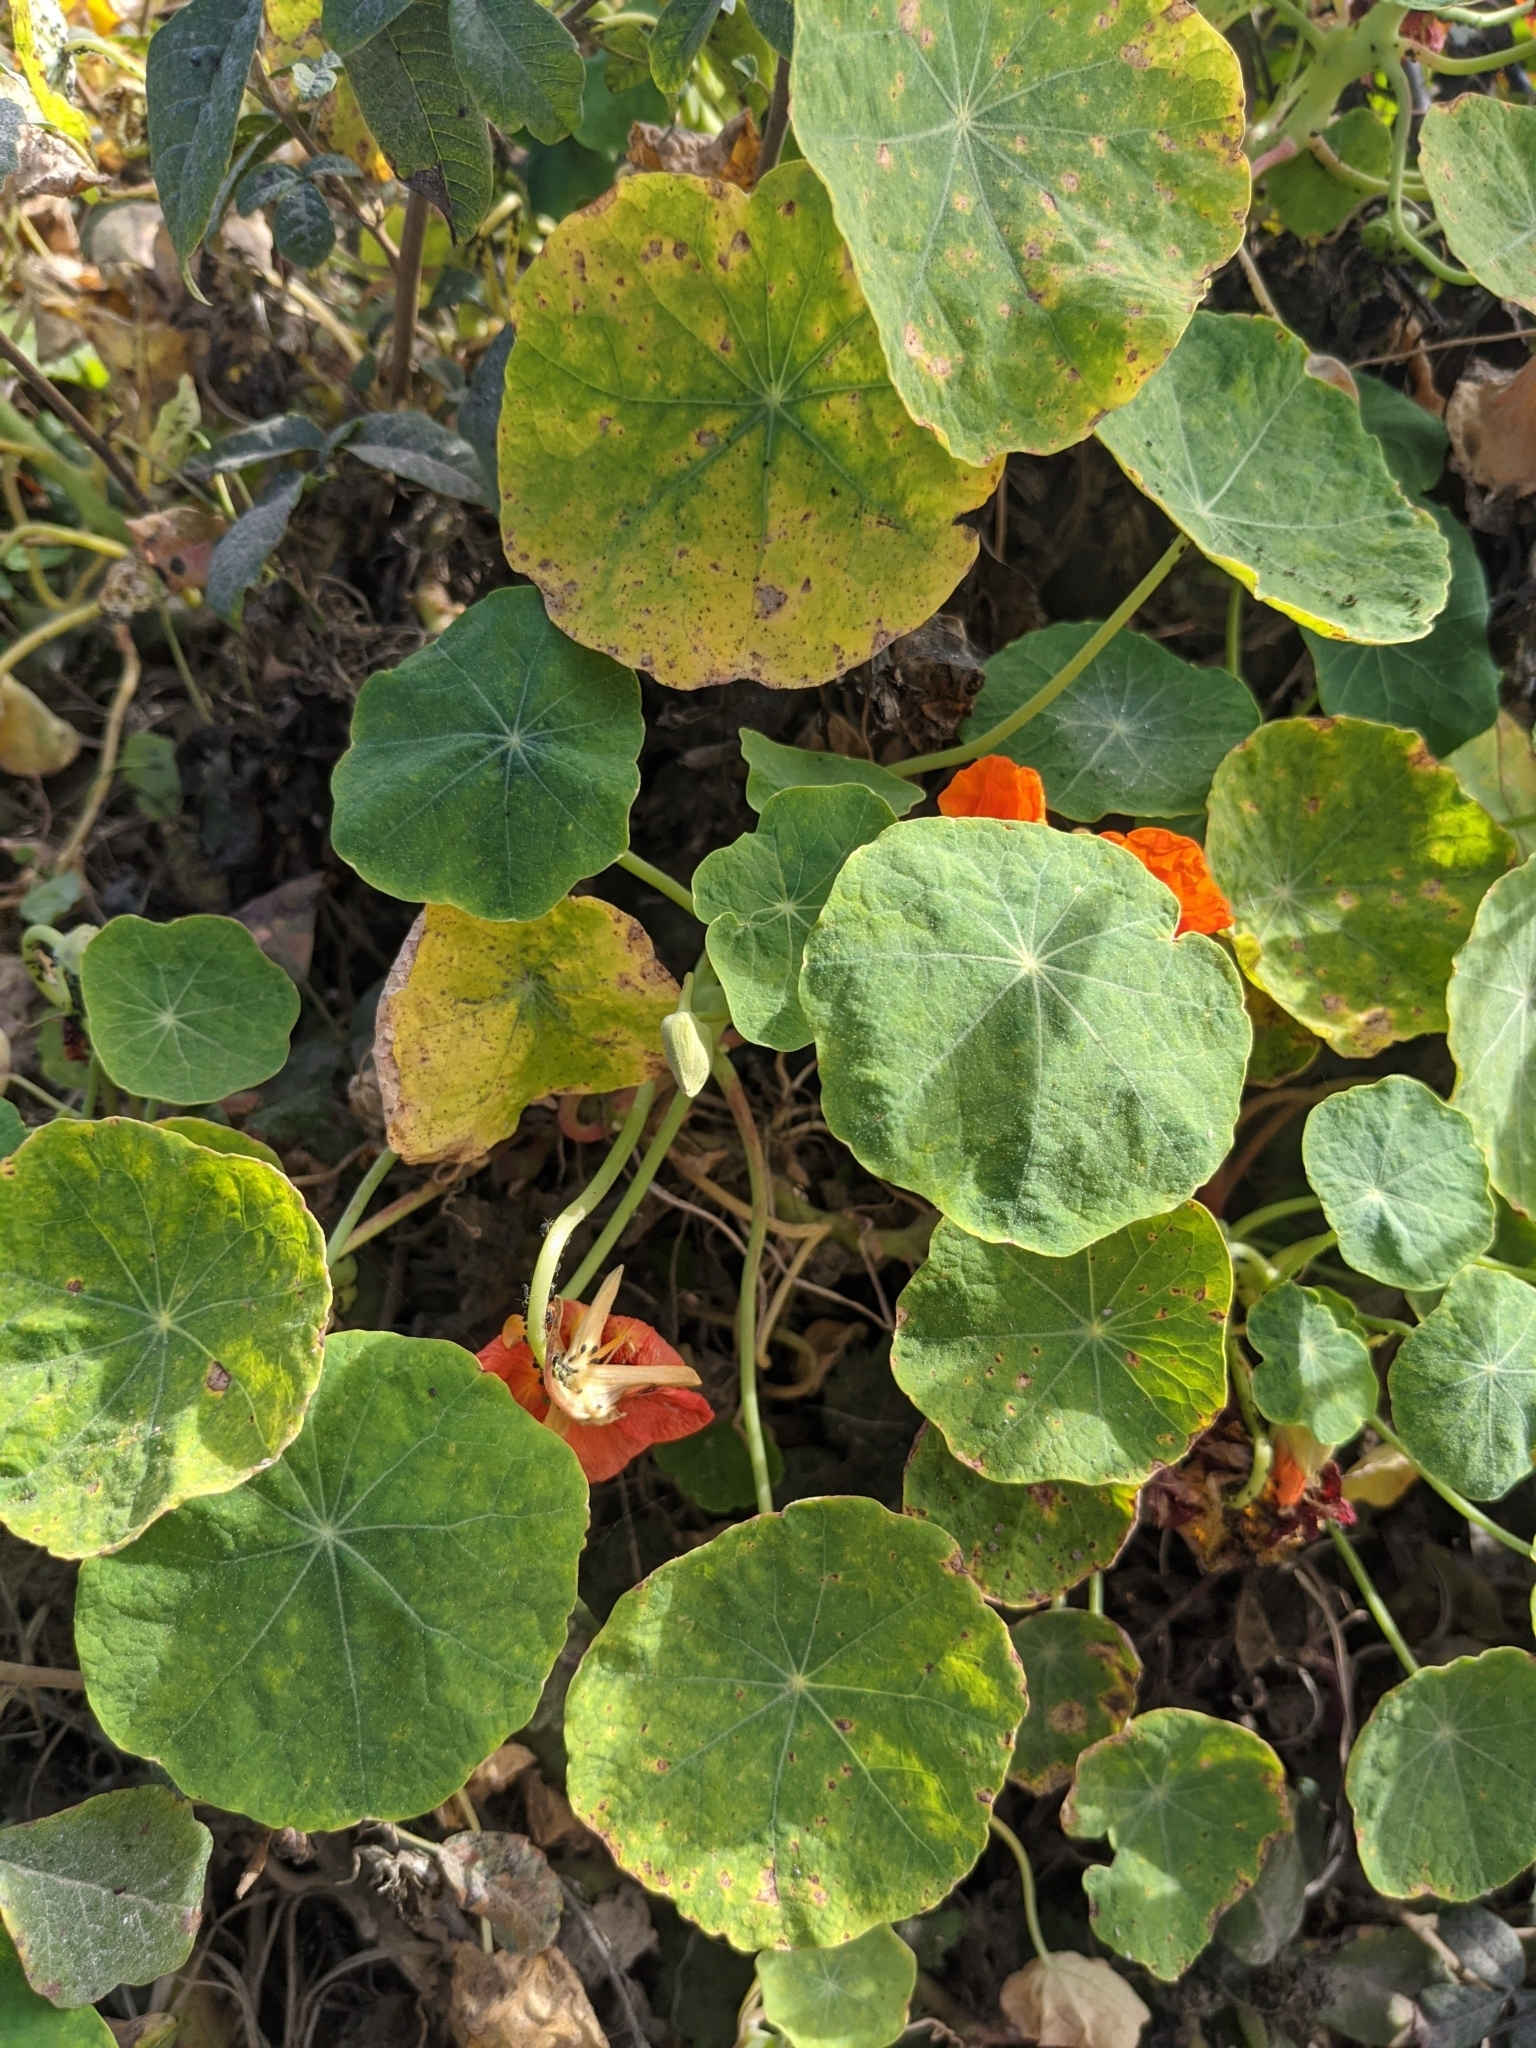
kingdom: Plantae
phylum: Tracheophyta
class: Magnoliopsida
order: Brassicales
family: Tropaeolaceae
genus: Tropaeolum
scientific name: Tropaeolum majus
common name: Nasturtium
